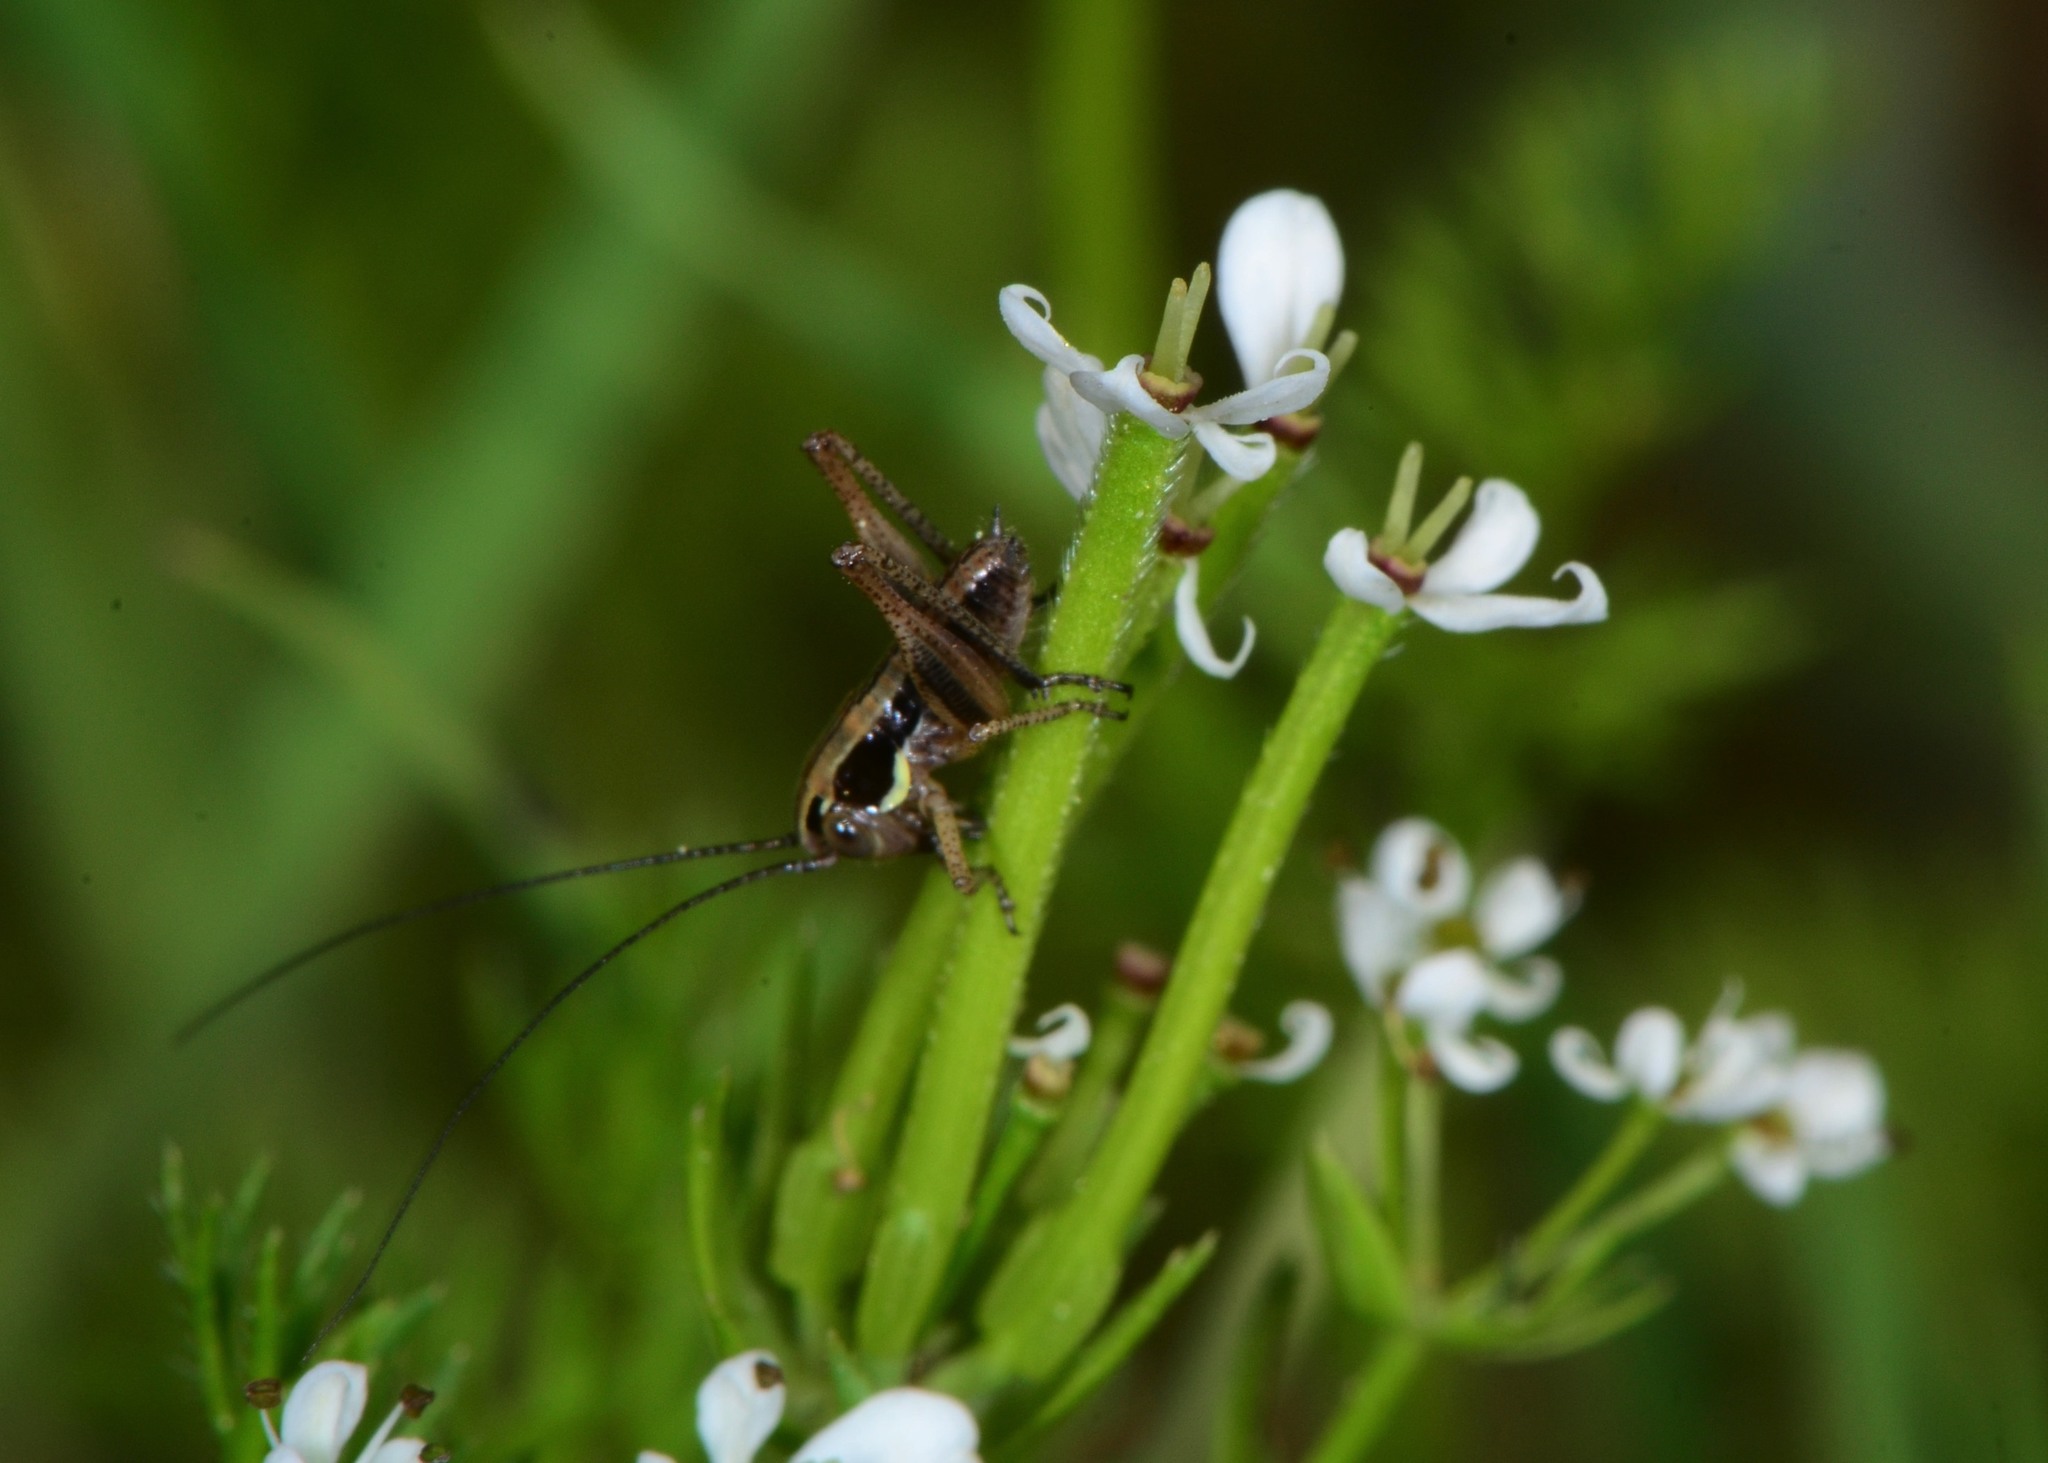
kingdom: Plantae
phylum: Tracheophyta
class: Magnoliopsida
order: Apiales
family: Apiaceae
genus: Scandix
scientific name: Scandix pecten-veneris
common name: Shepherd's-needle
